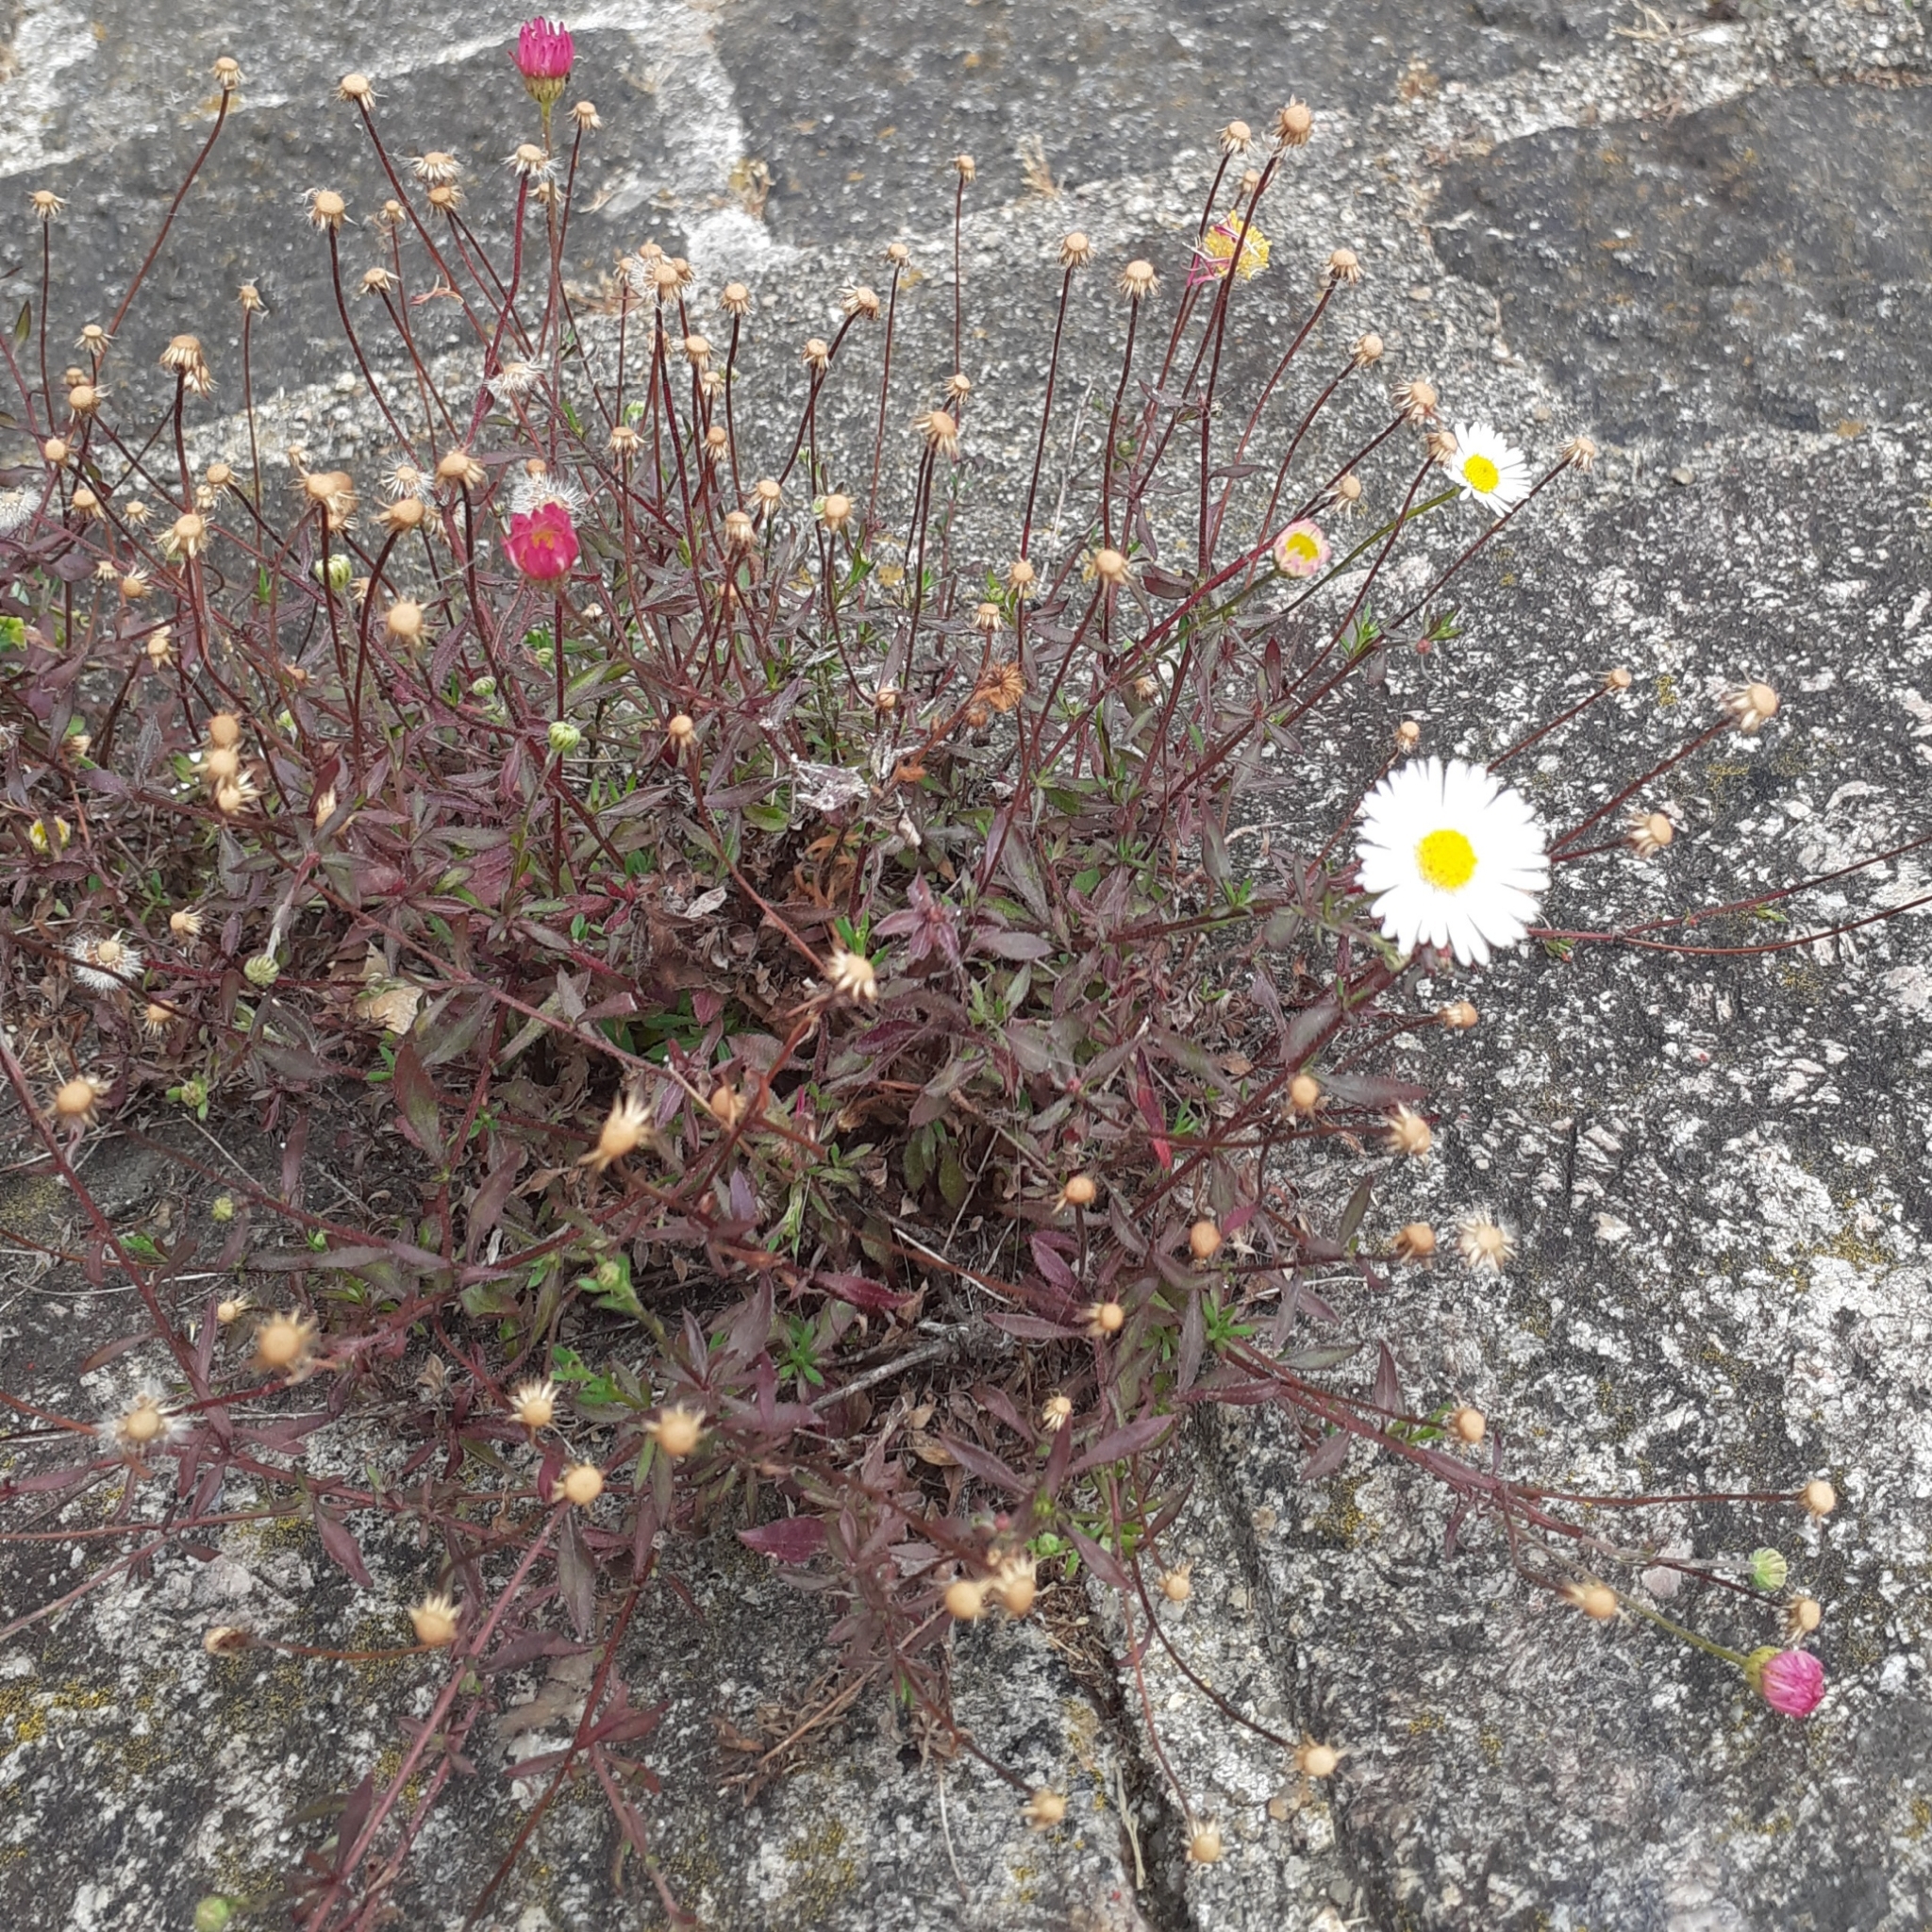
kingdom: Plantae
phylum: Tracheophyta
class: Magnoliopsida
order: Asterales
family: Asteraceae
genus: Erigeron
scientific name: Erigeron karvinskianus
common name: Mexican fleabane
